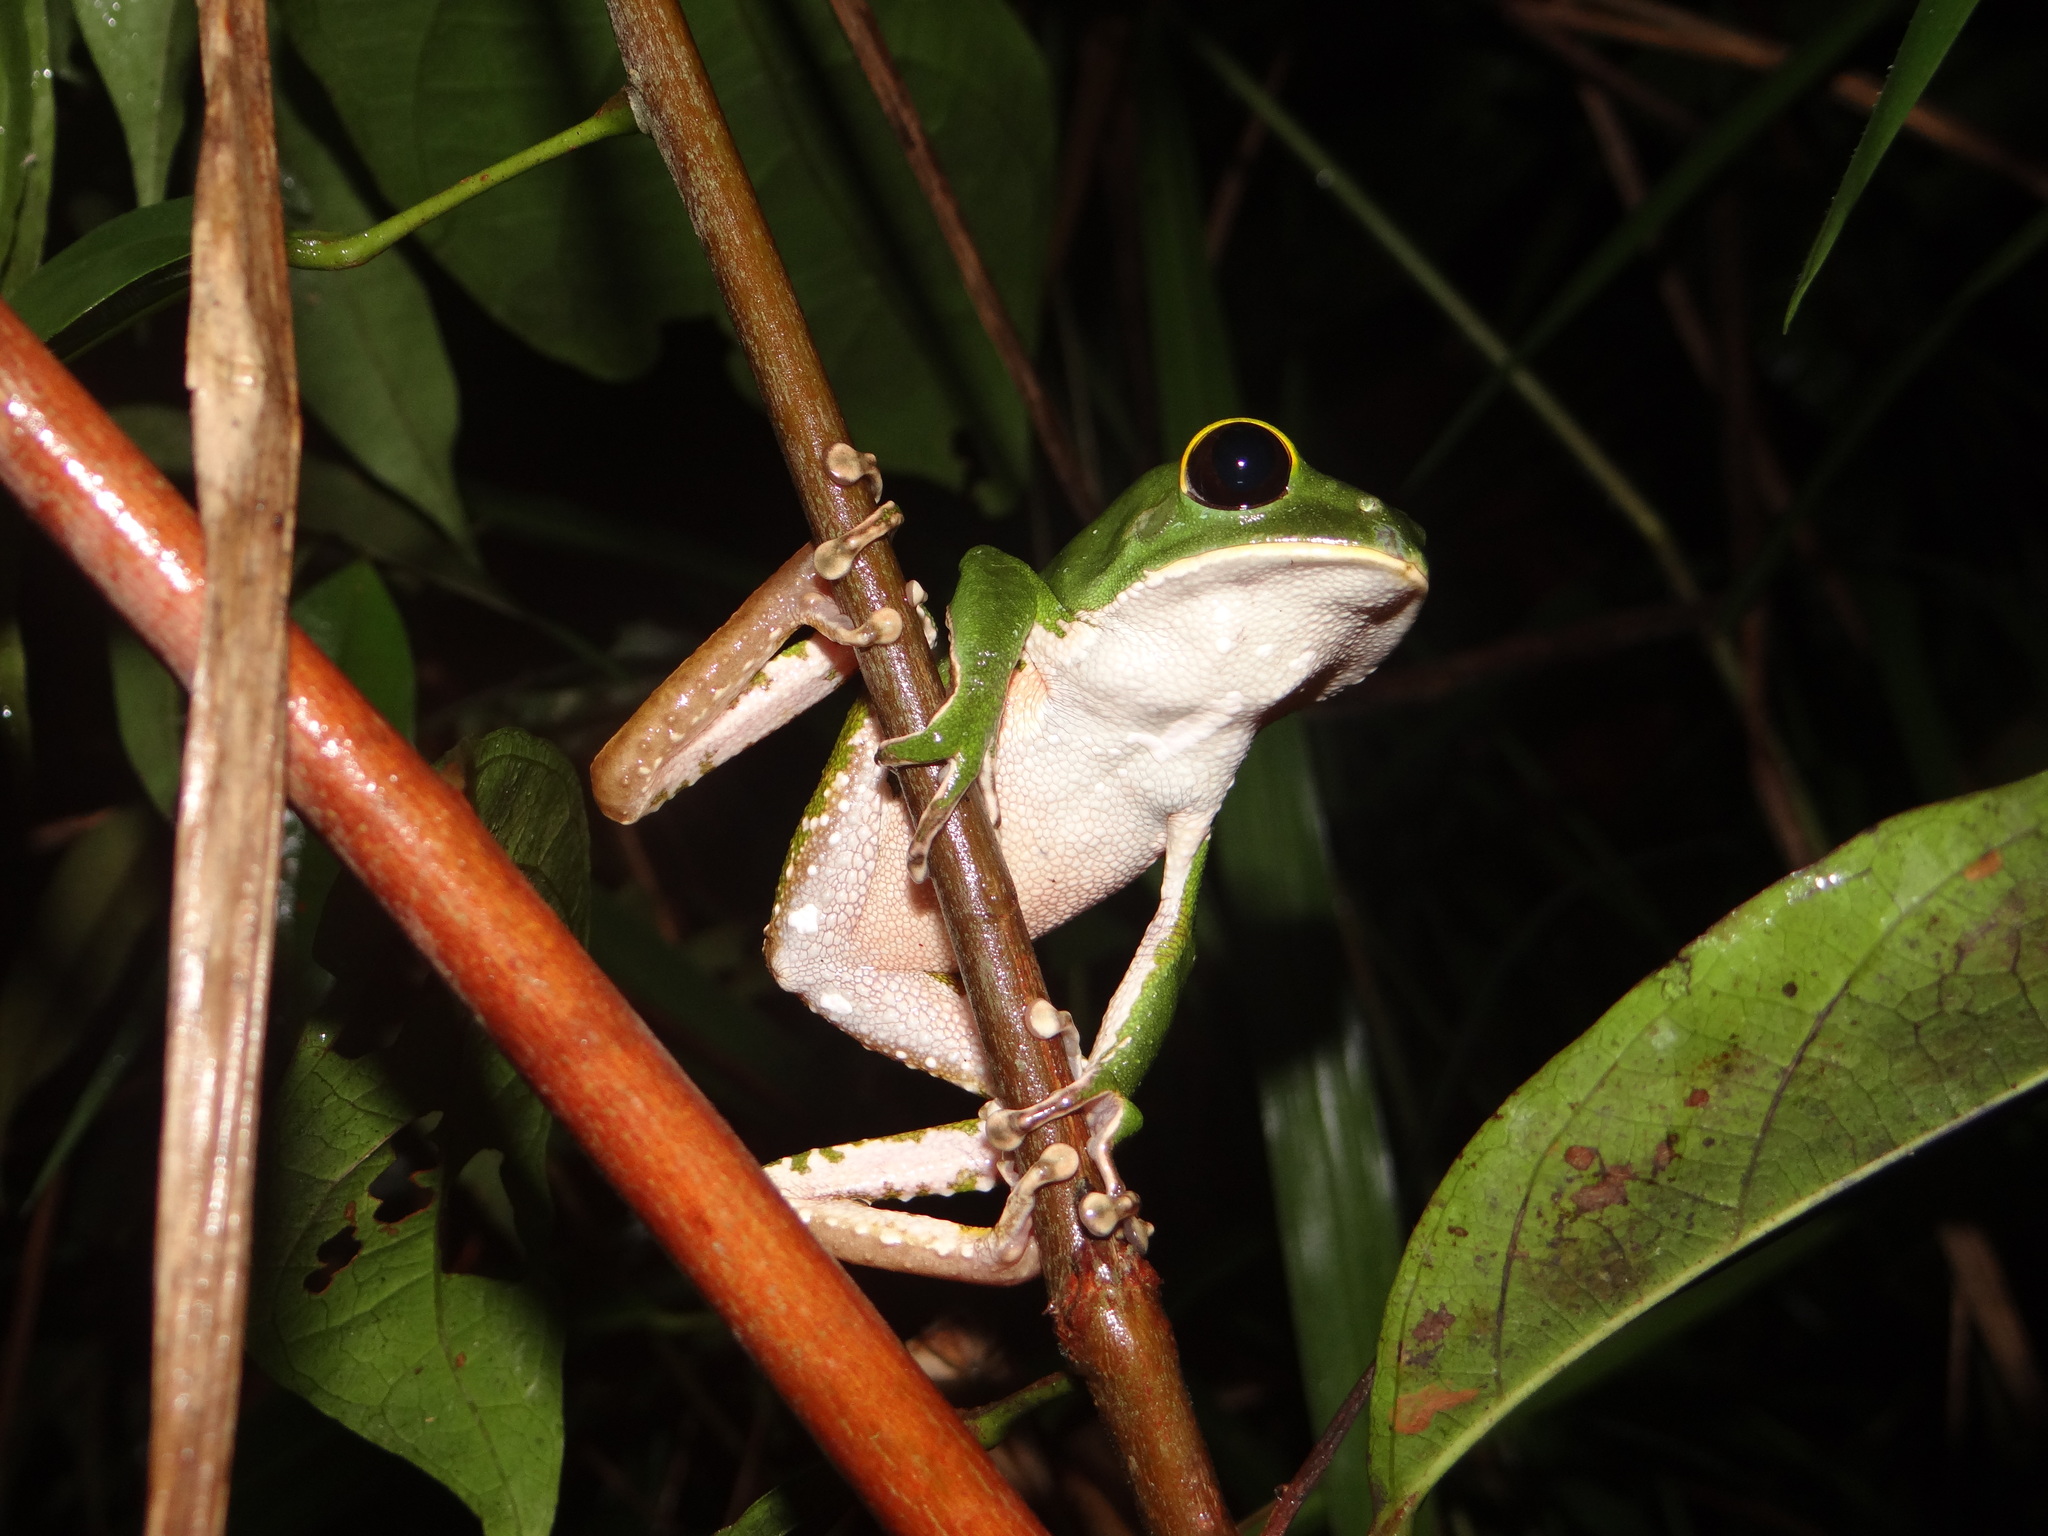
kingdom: Animalia
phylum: Chordata
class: Amphibia
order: Anura
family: Phyllomedusidae
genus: Phyllomedusa
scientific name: Phyllomedusa camba
